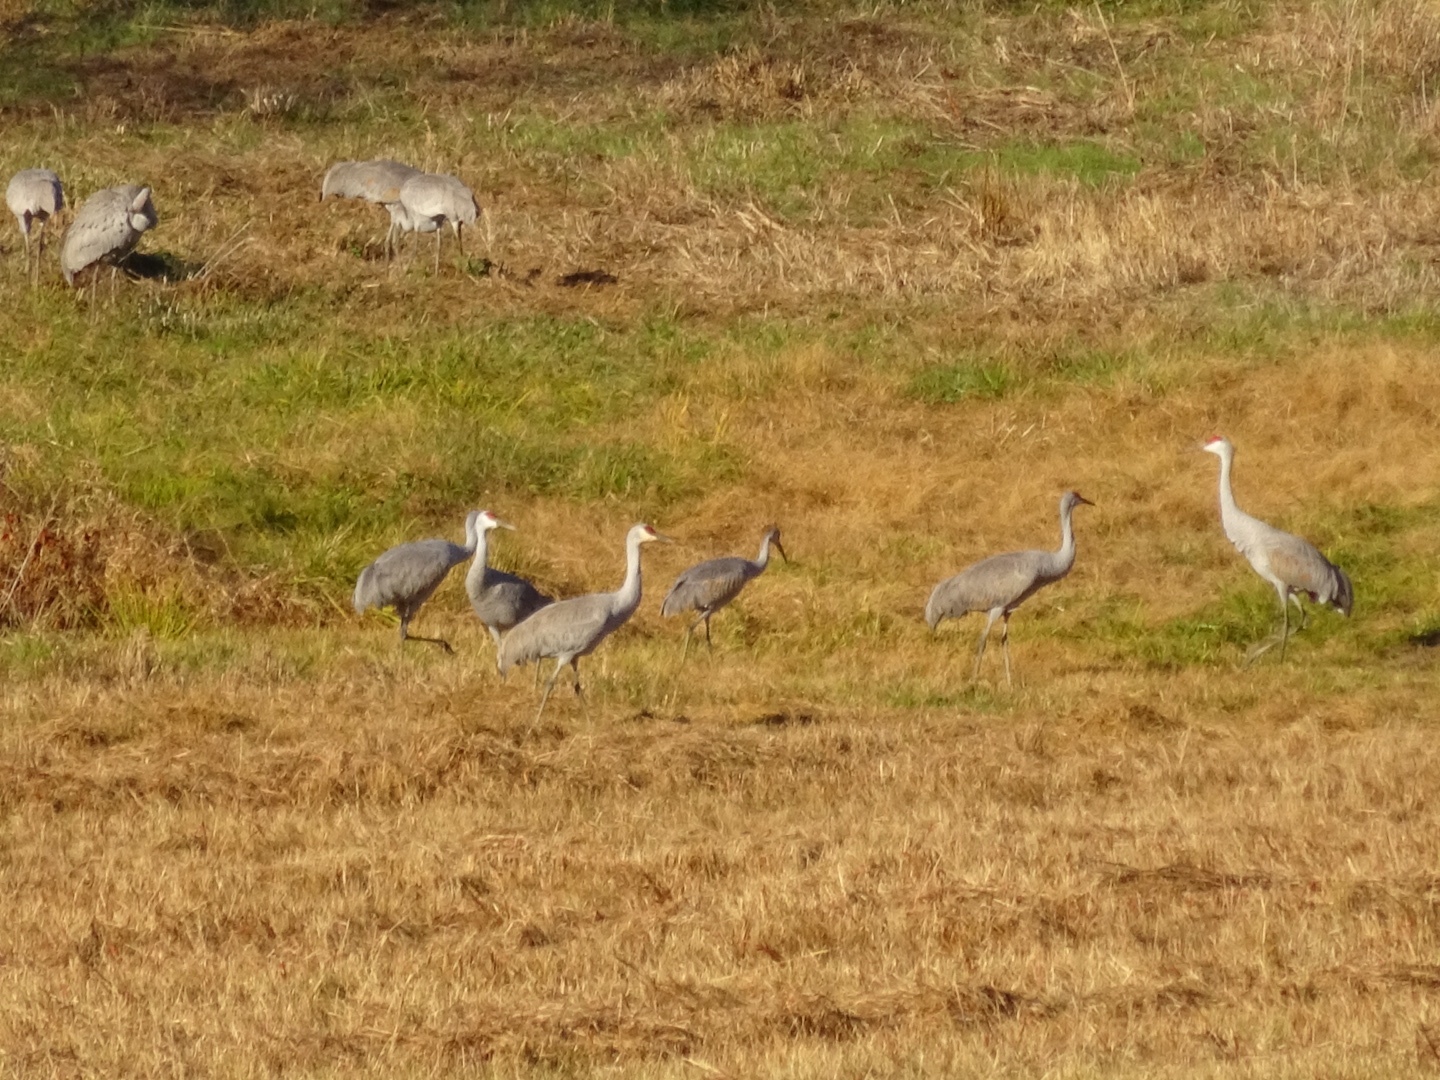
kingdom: Animalia
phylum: Chordata
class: Aves
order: Gruiformes
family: Gruidae
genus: Grus
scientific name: Grus canadensis
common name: Sandhill crane
